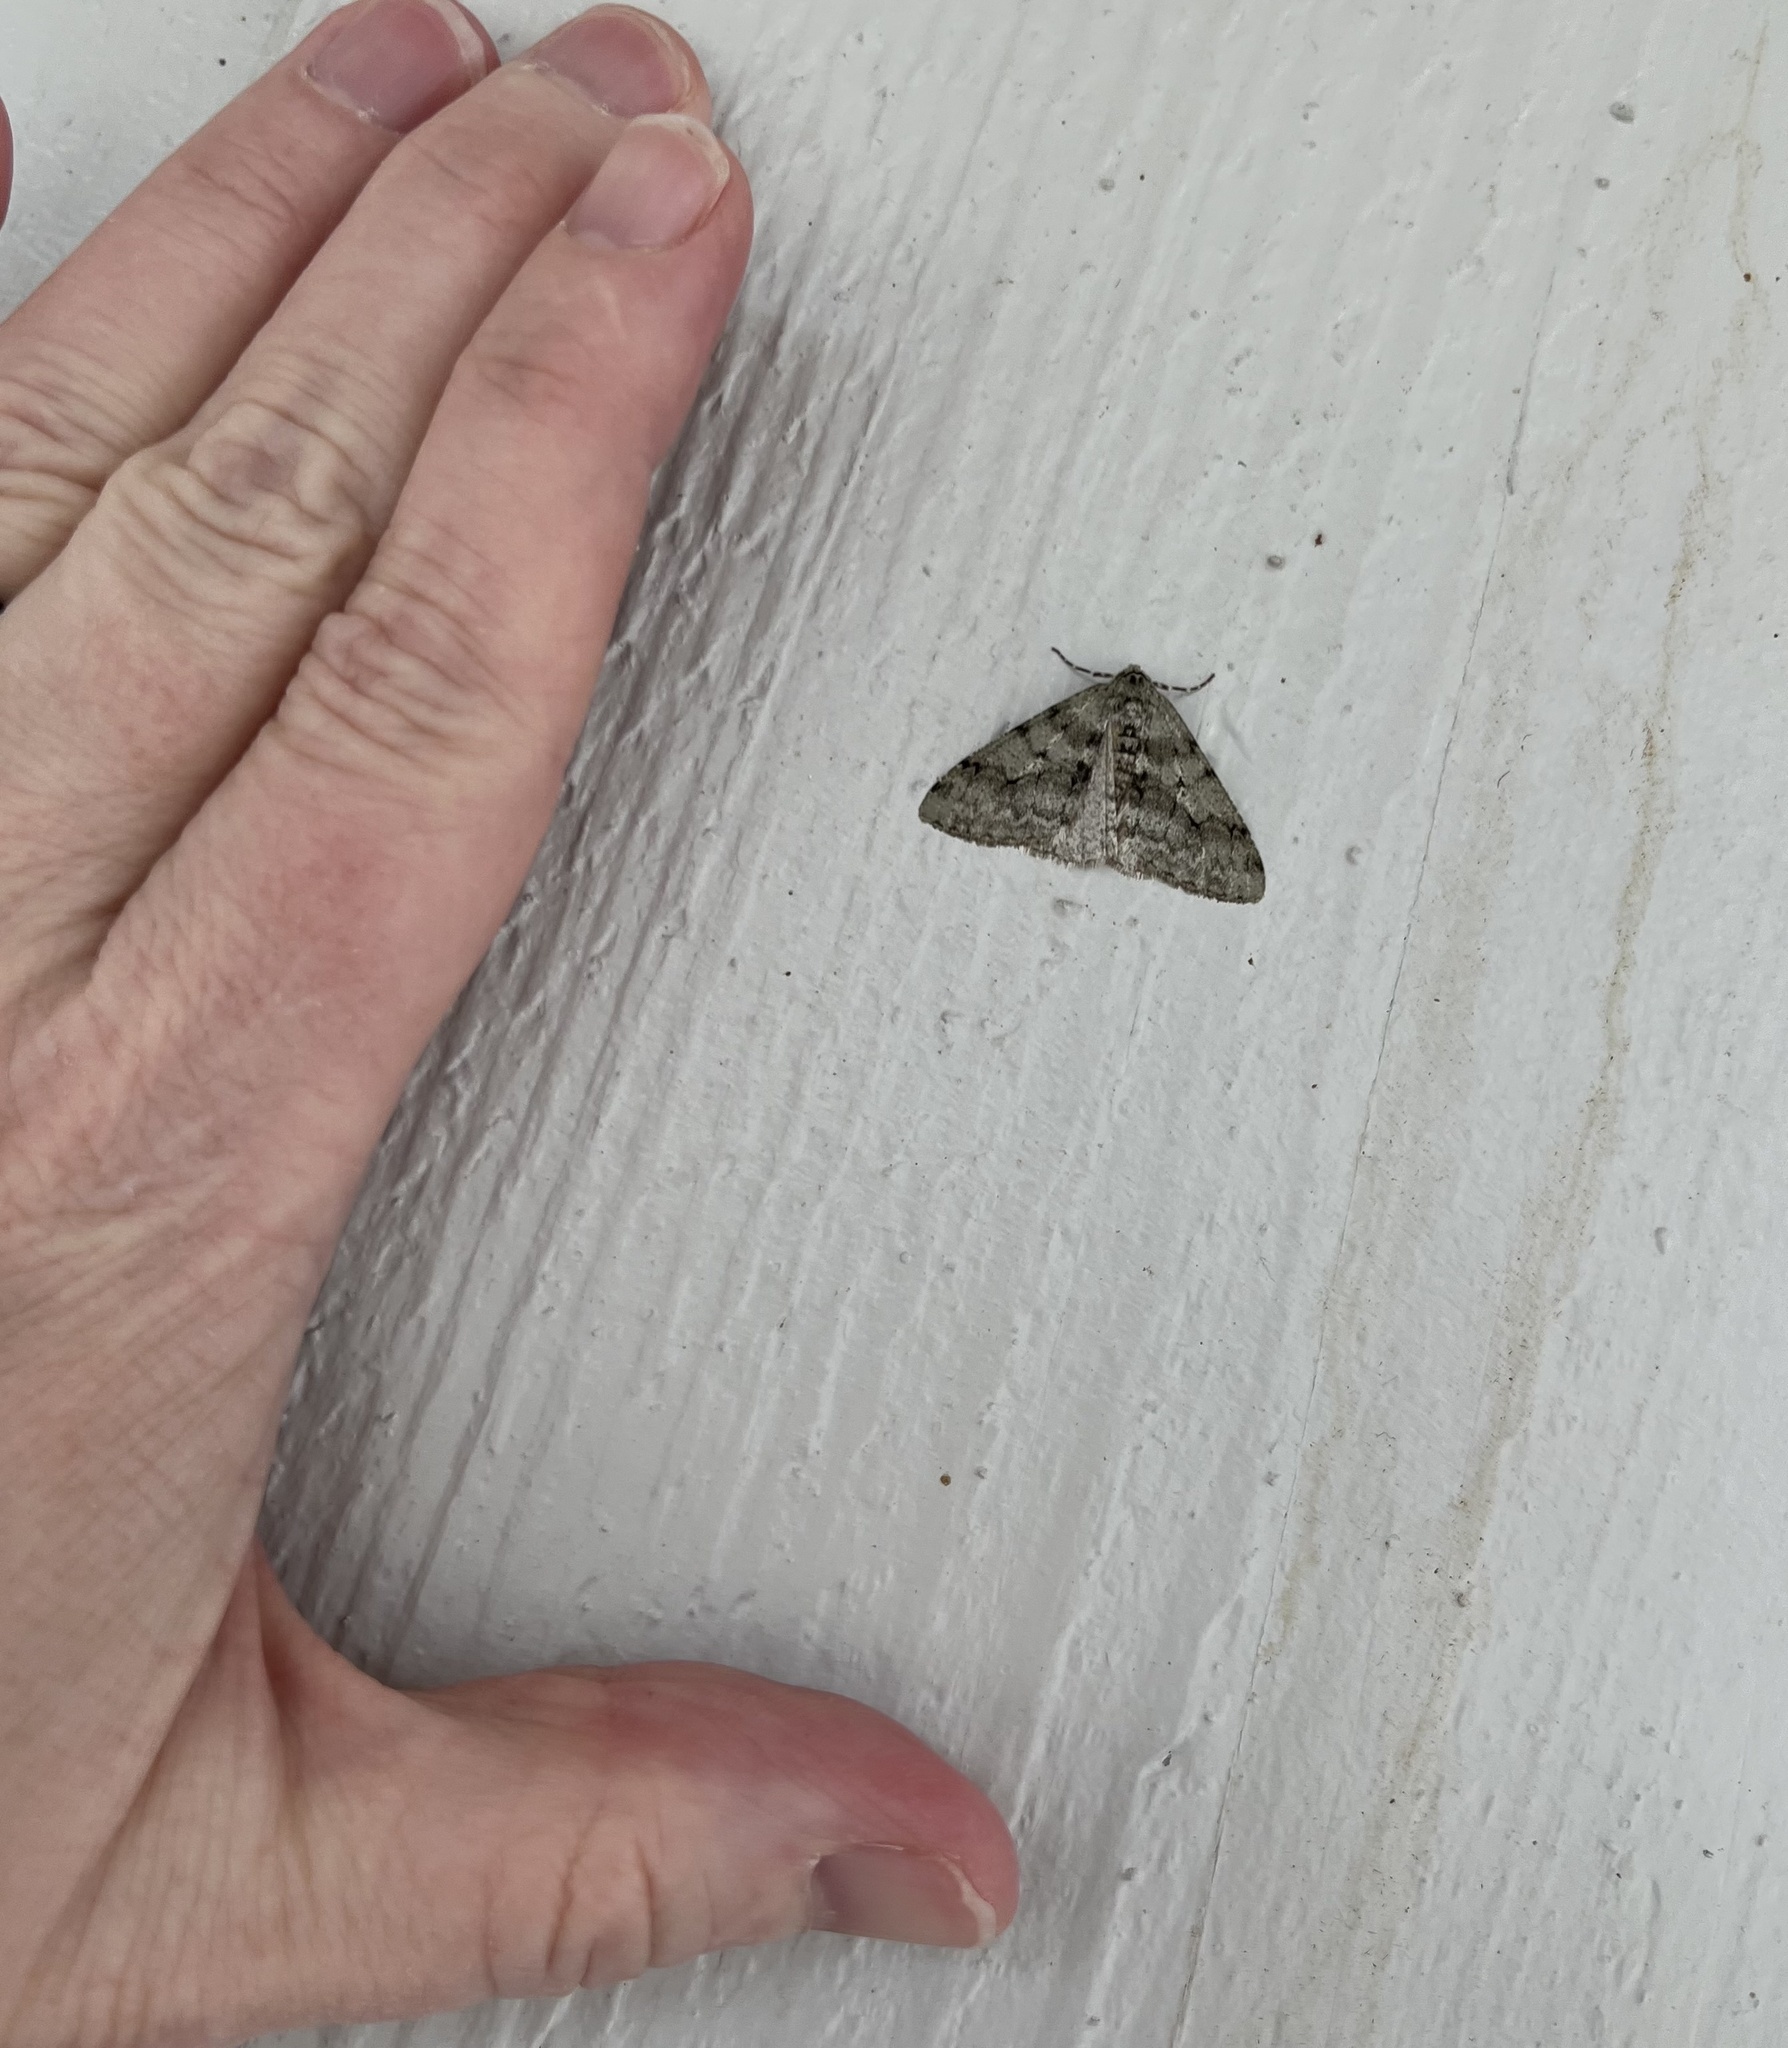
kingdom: Animalia
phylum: Arthropoda
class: Insecta
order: Lepidoptera
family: Geometridae
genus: Phigalia
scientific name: Phigalia strigataria
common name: Small phigalia
